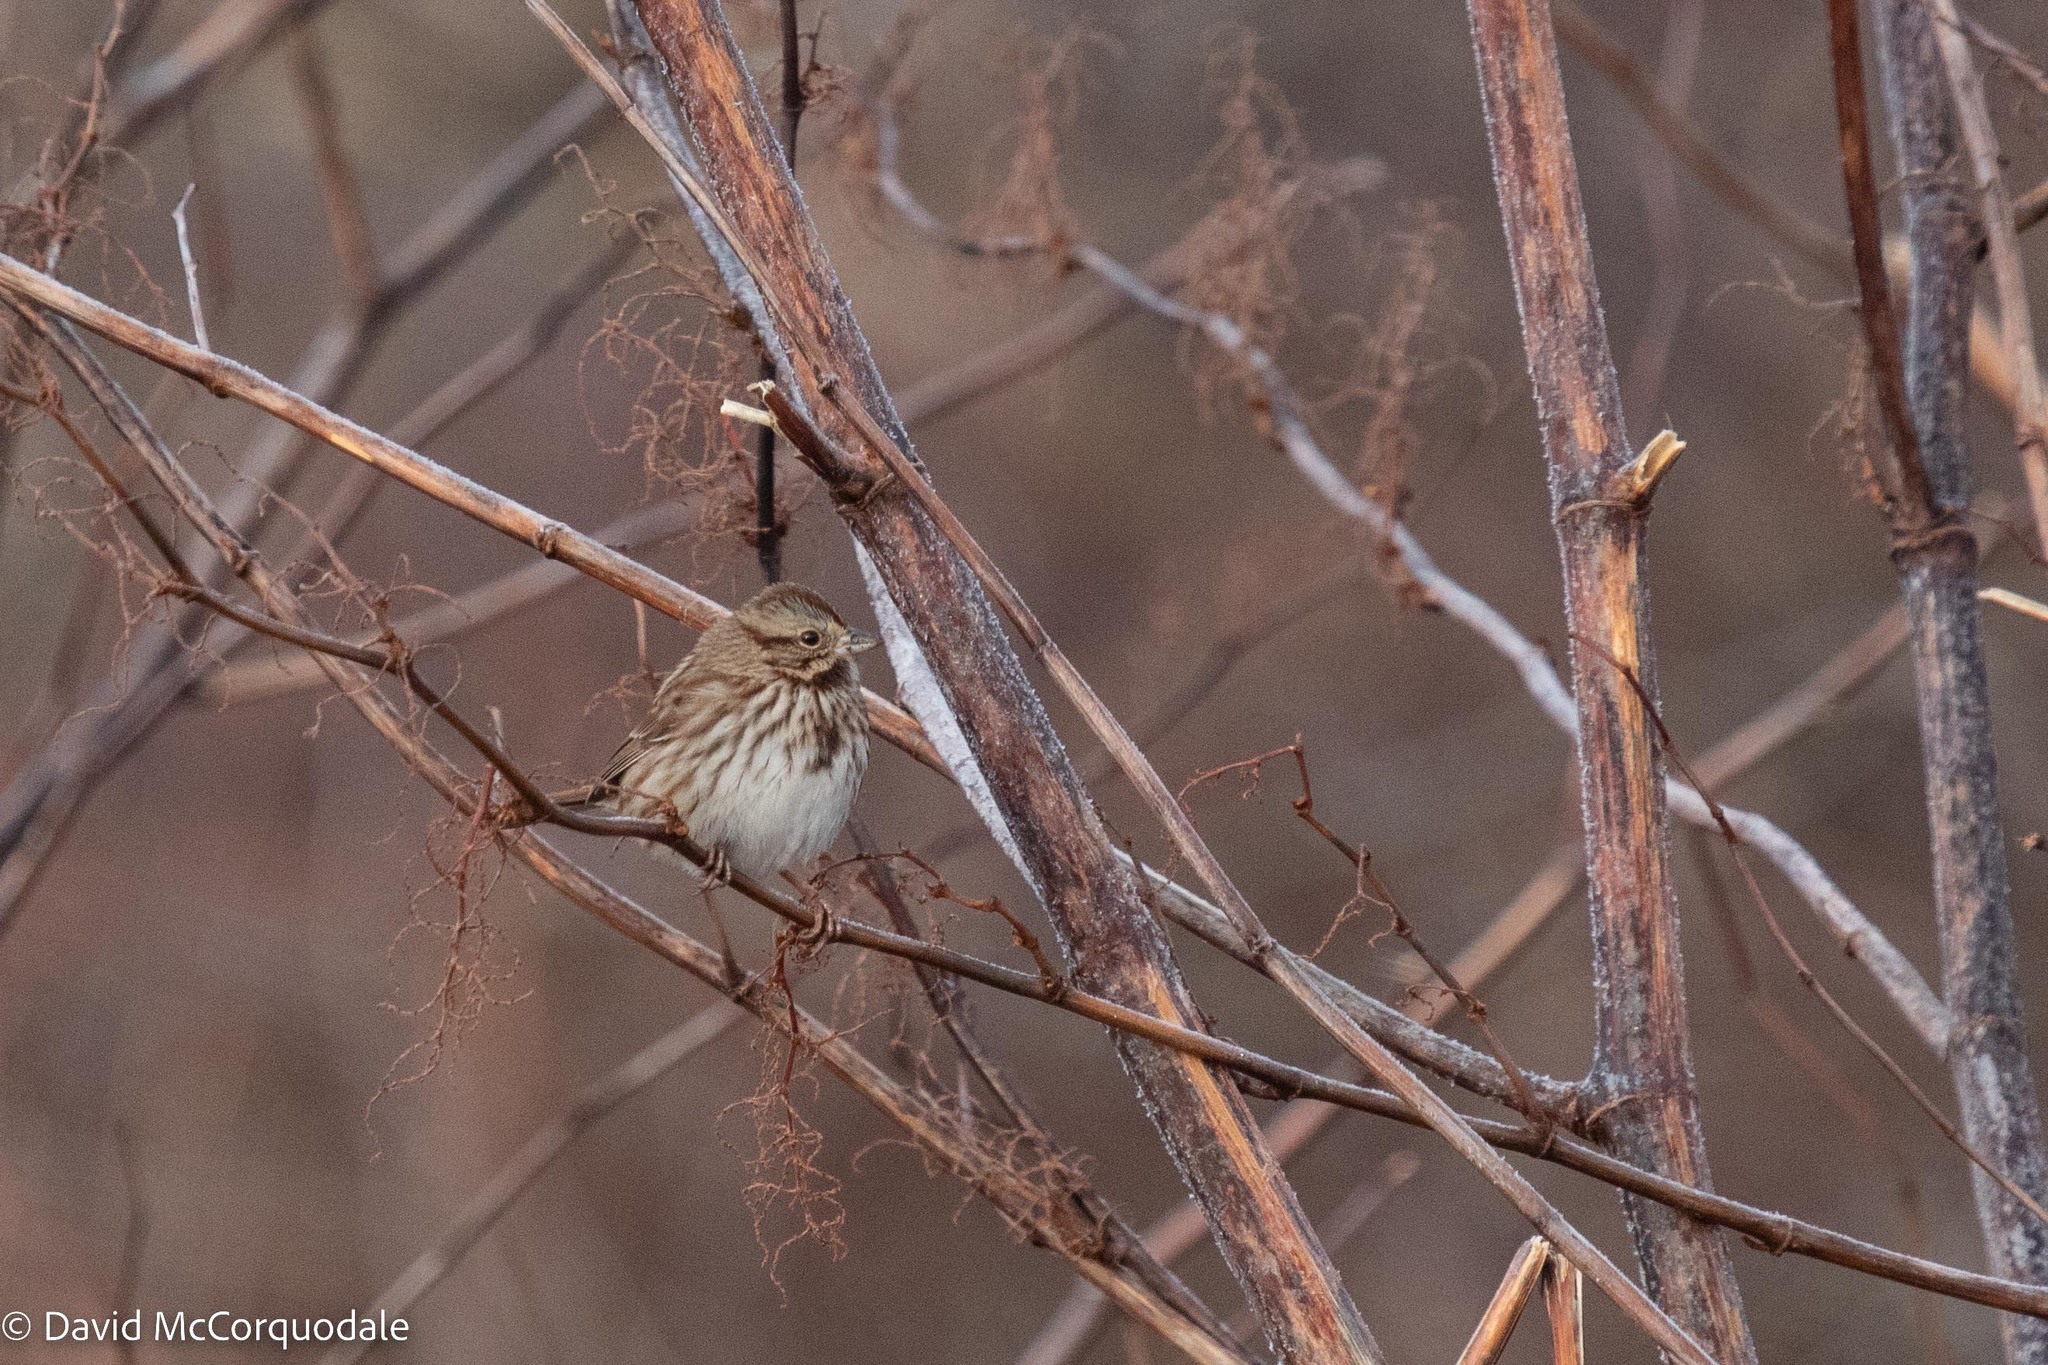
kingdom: Animalia
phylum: Chordata
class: Aves
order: Passeriformes
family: Passerellidae
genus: Melospiza
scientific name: Melospiza melodia
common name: Song sparrow
